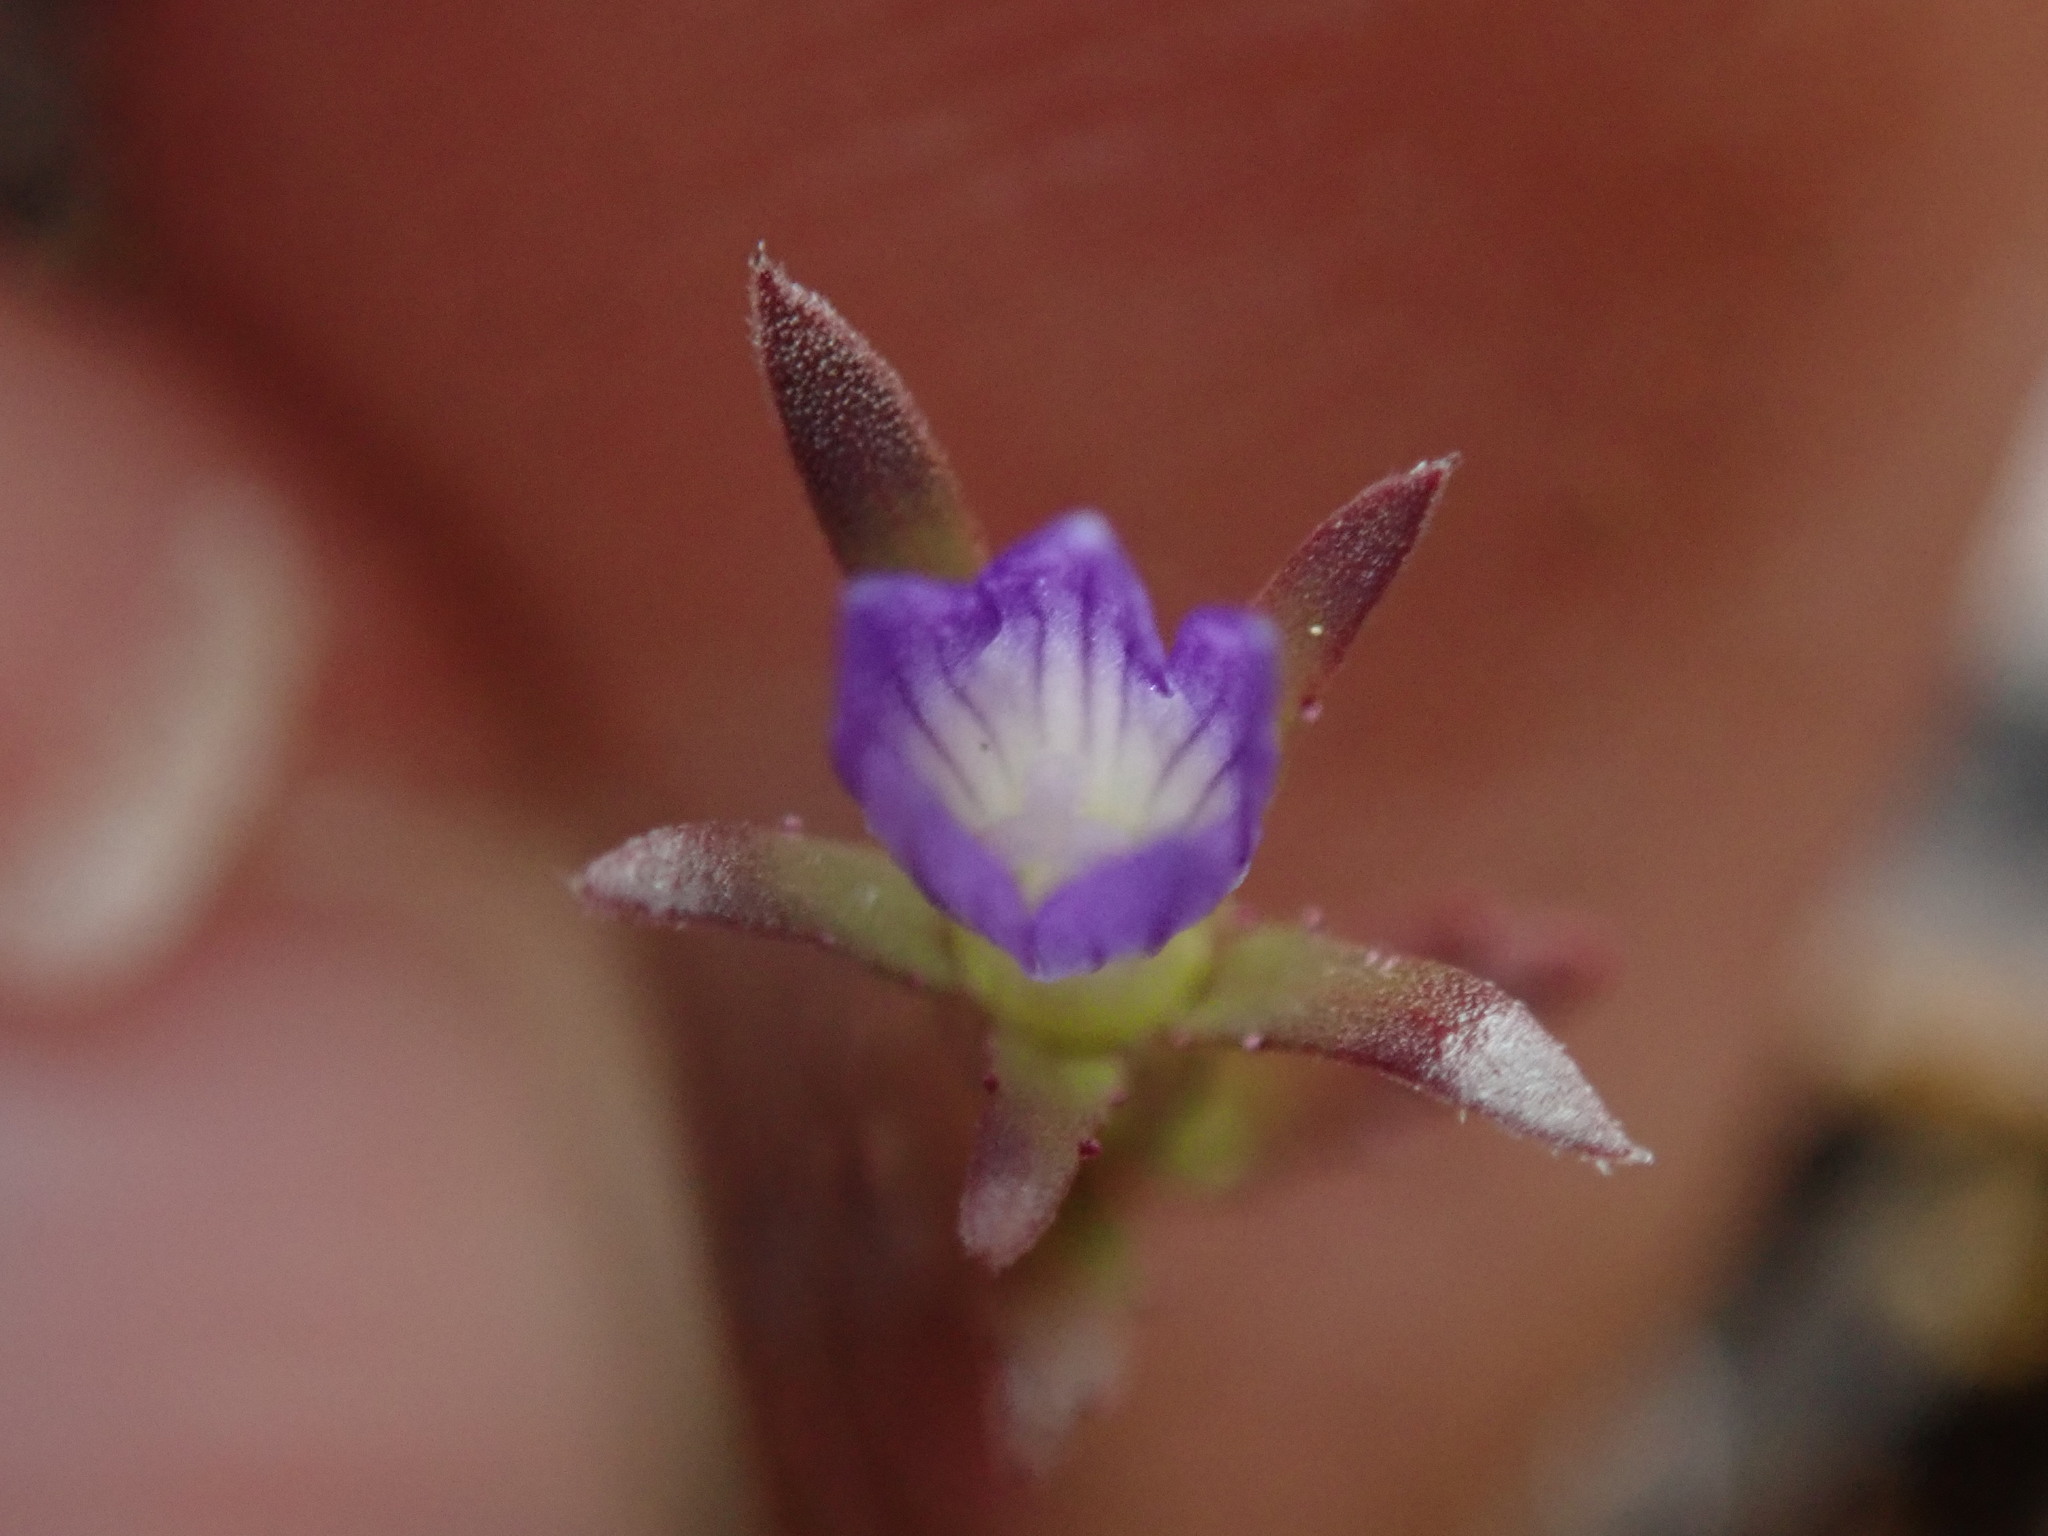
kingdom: Plantae
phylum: Tracheophyta
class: Magnoliopsida
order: Asterales
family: Campanulaceae
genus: Githopsis
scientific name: Githopsis specularioides
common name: Common bluecup
